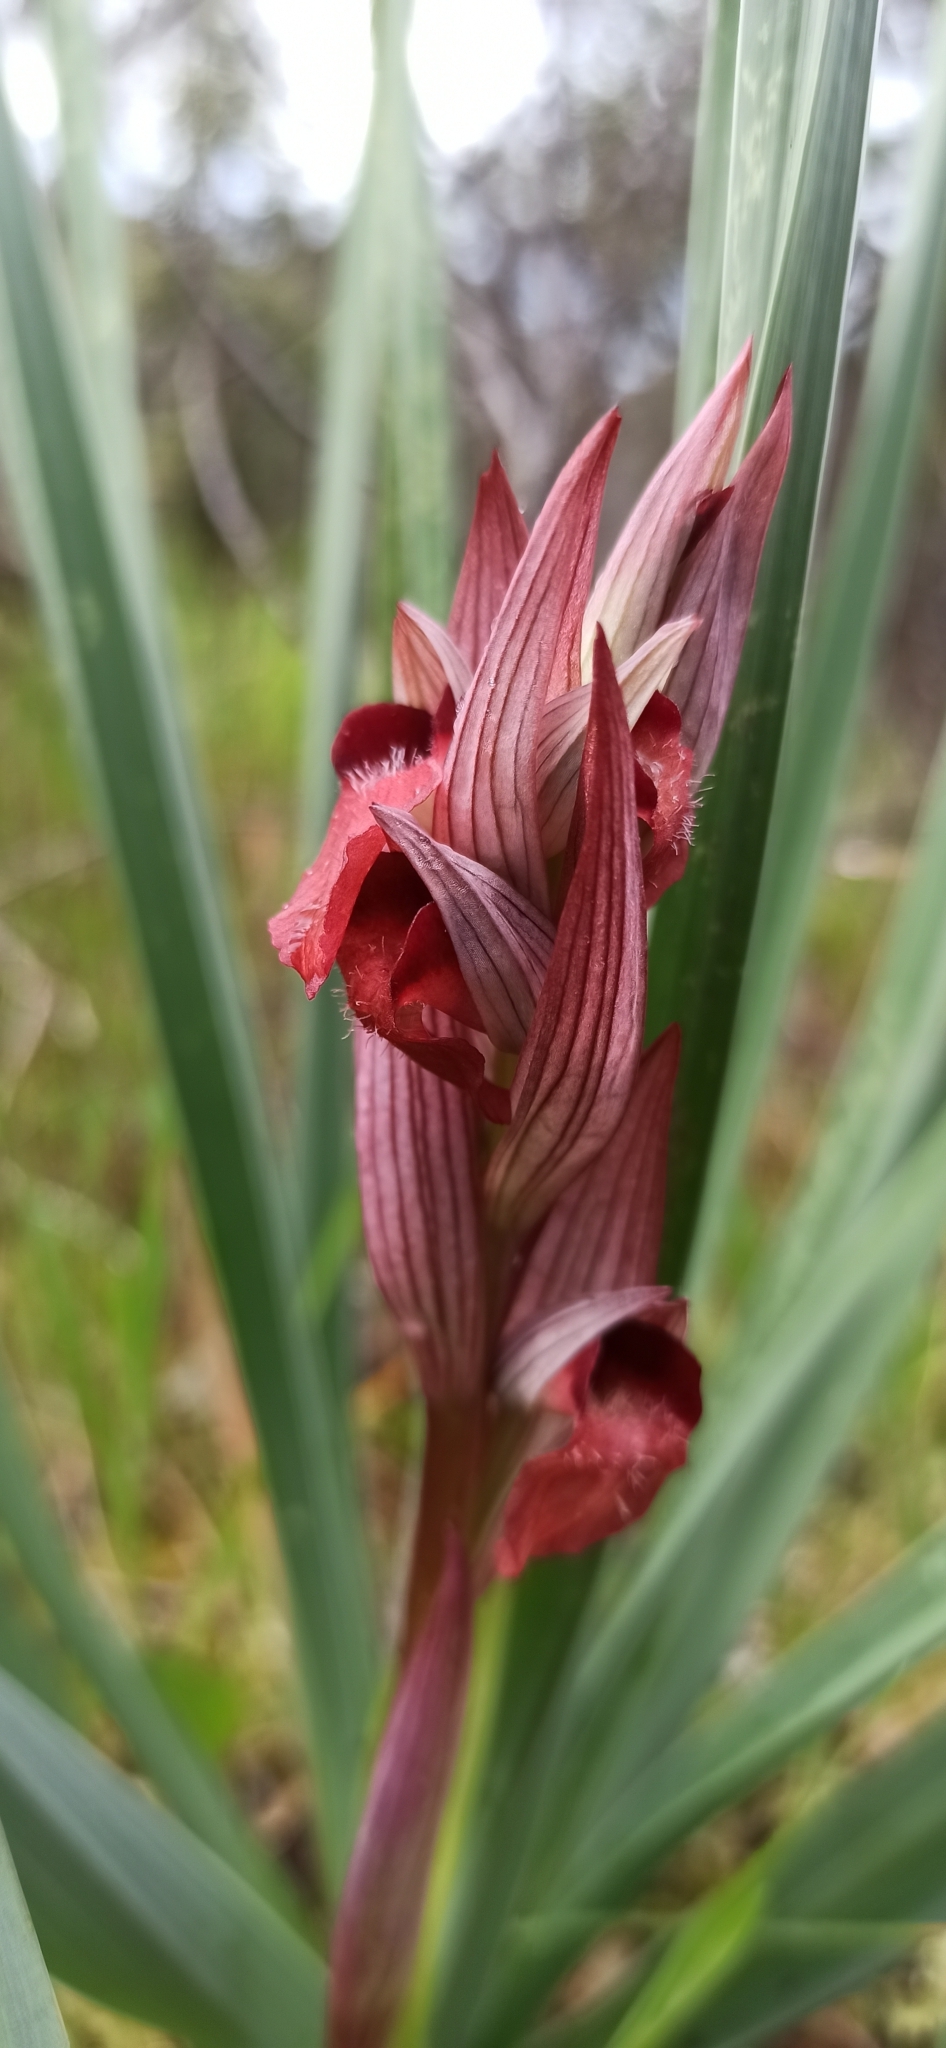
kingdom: Plantae
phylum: Tracheophyta
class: Liliopsida
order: Asparagales
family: Orchidaceae
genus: Serapias
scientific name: Serapias orientalis
